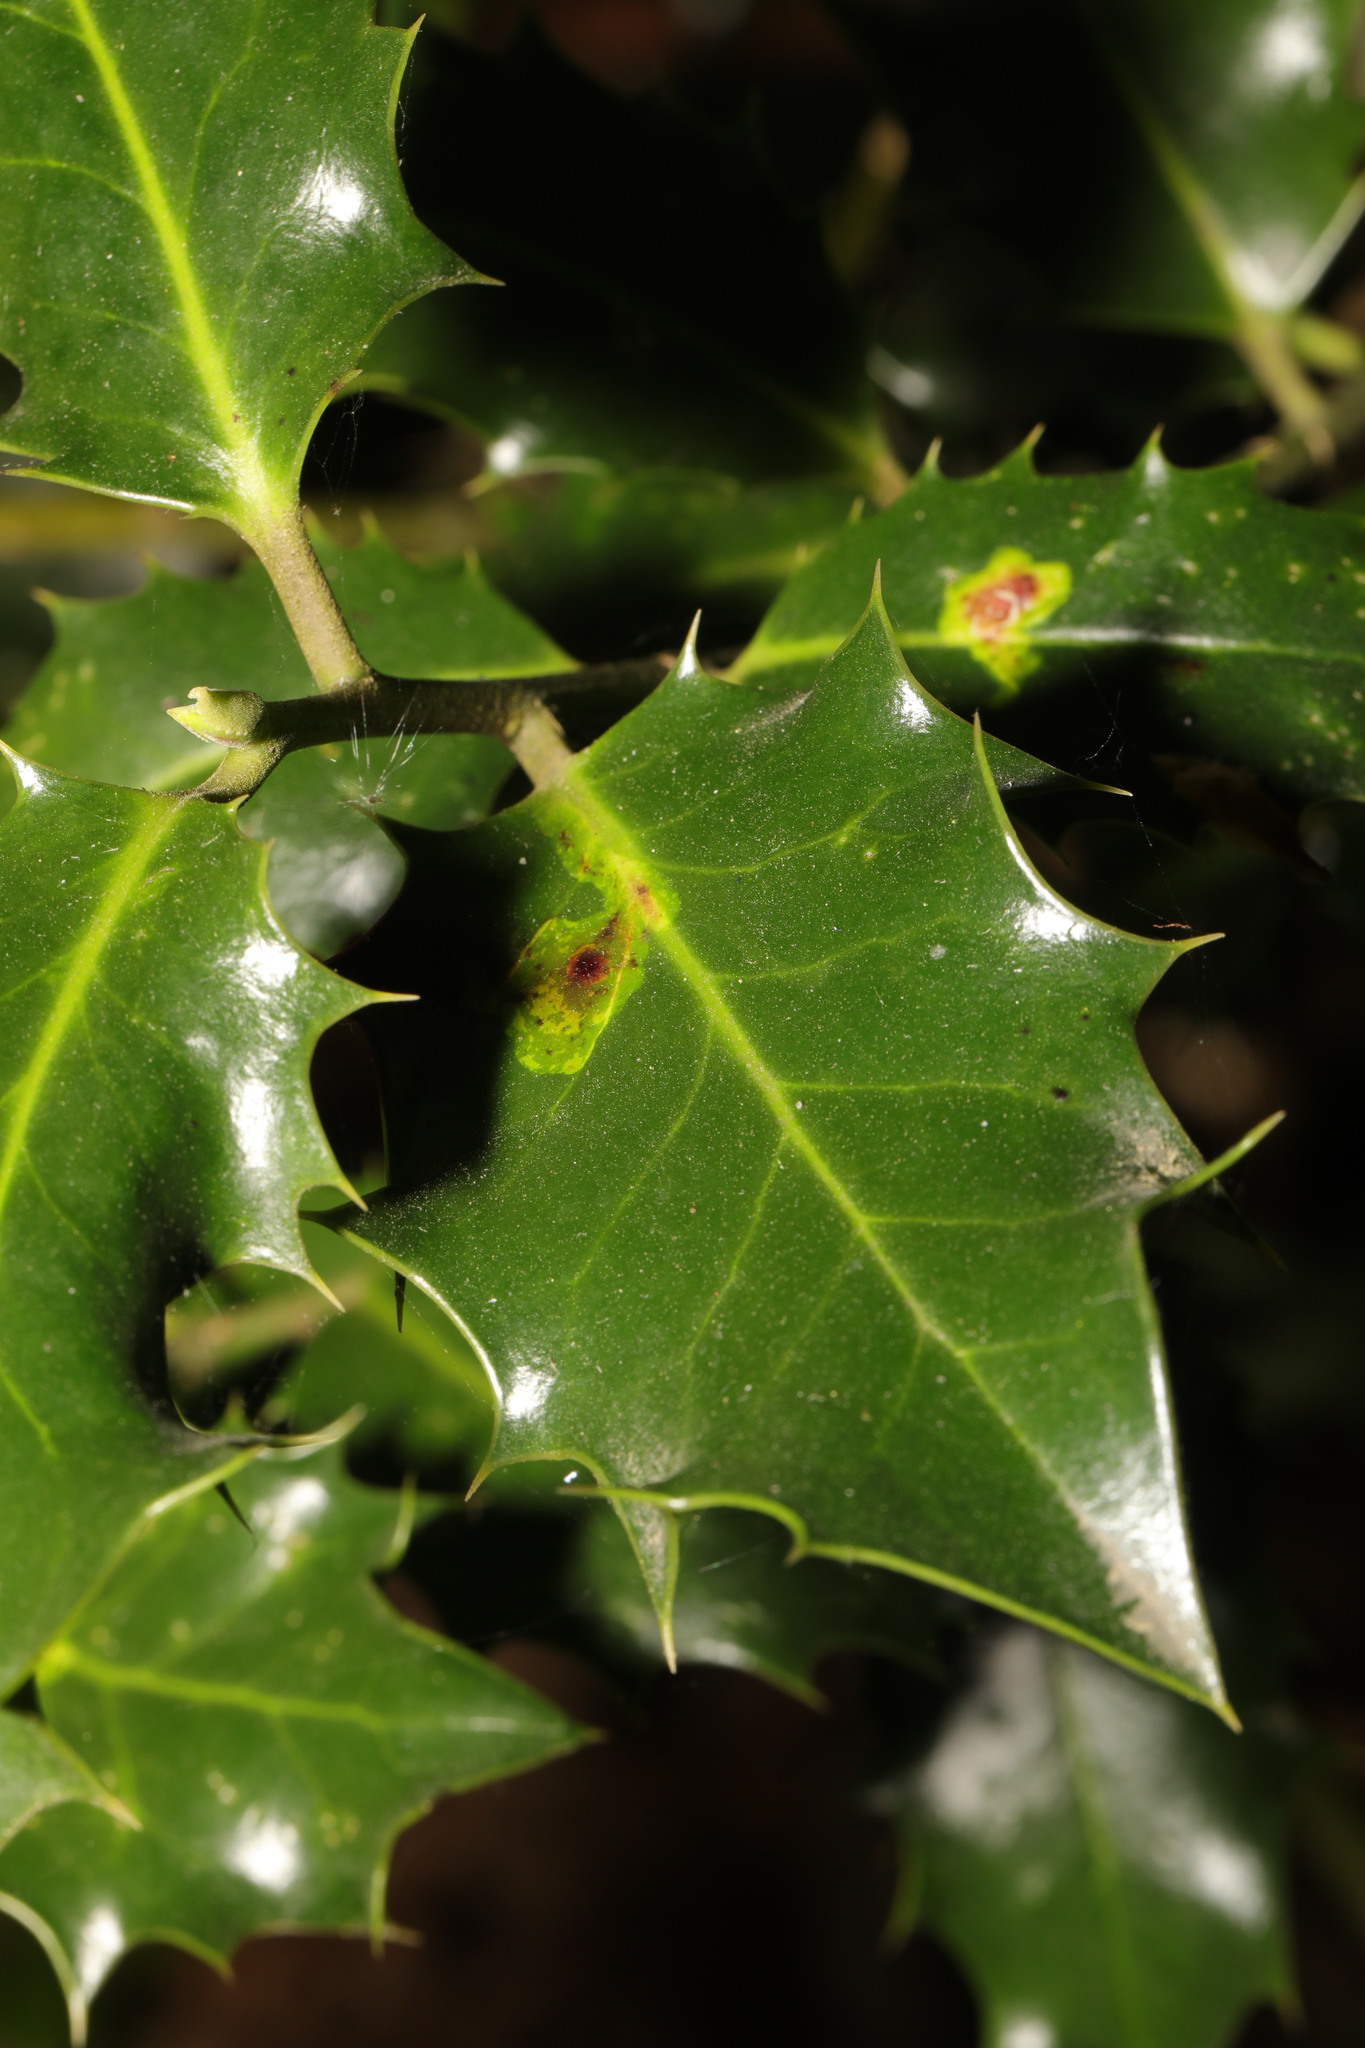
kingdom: Animalia
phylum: Arthropoda
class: Insecta
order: Diptera
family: Agromyzidae
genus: Phytomyza
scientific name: Phytomyza ilicis
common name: Holly leafminer
